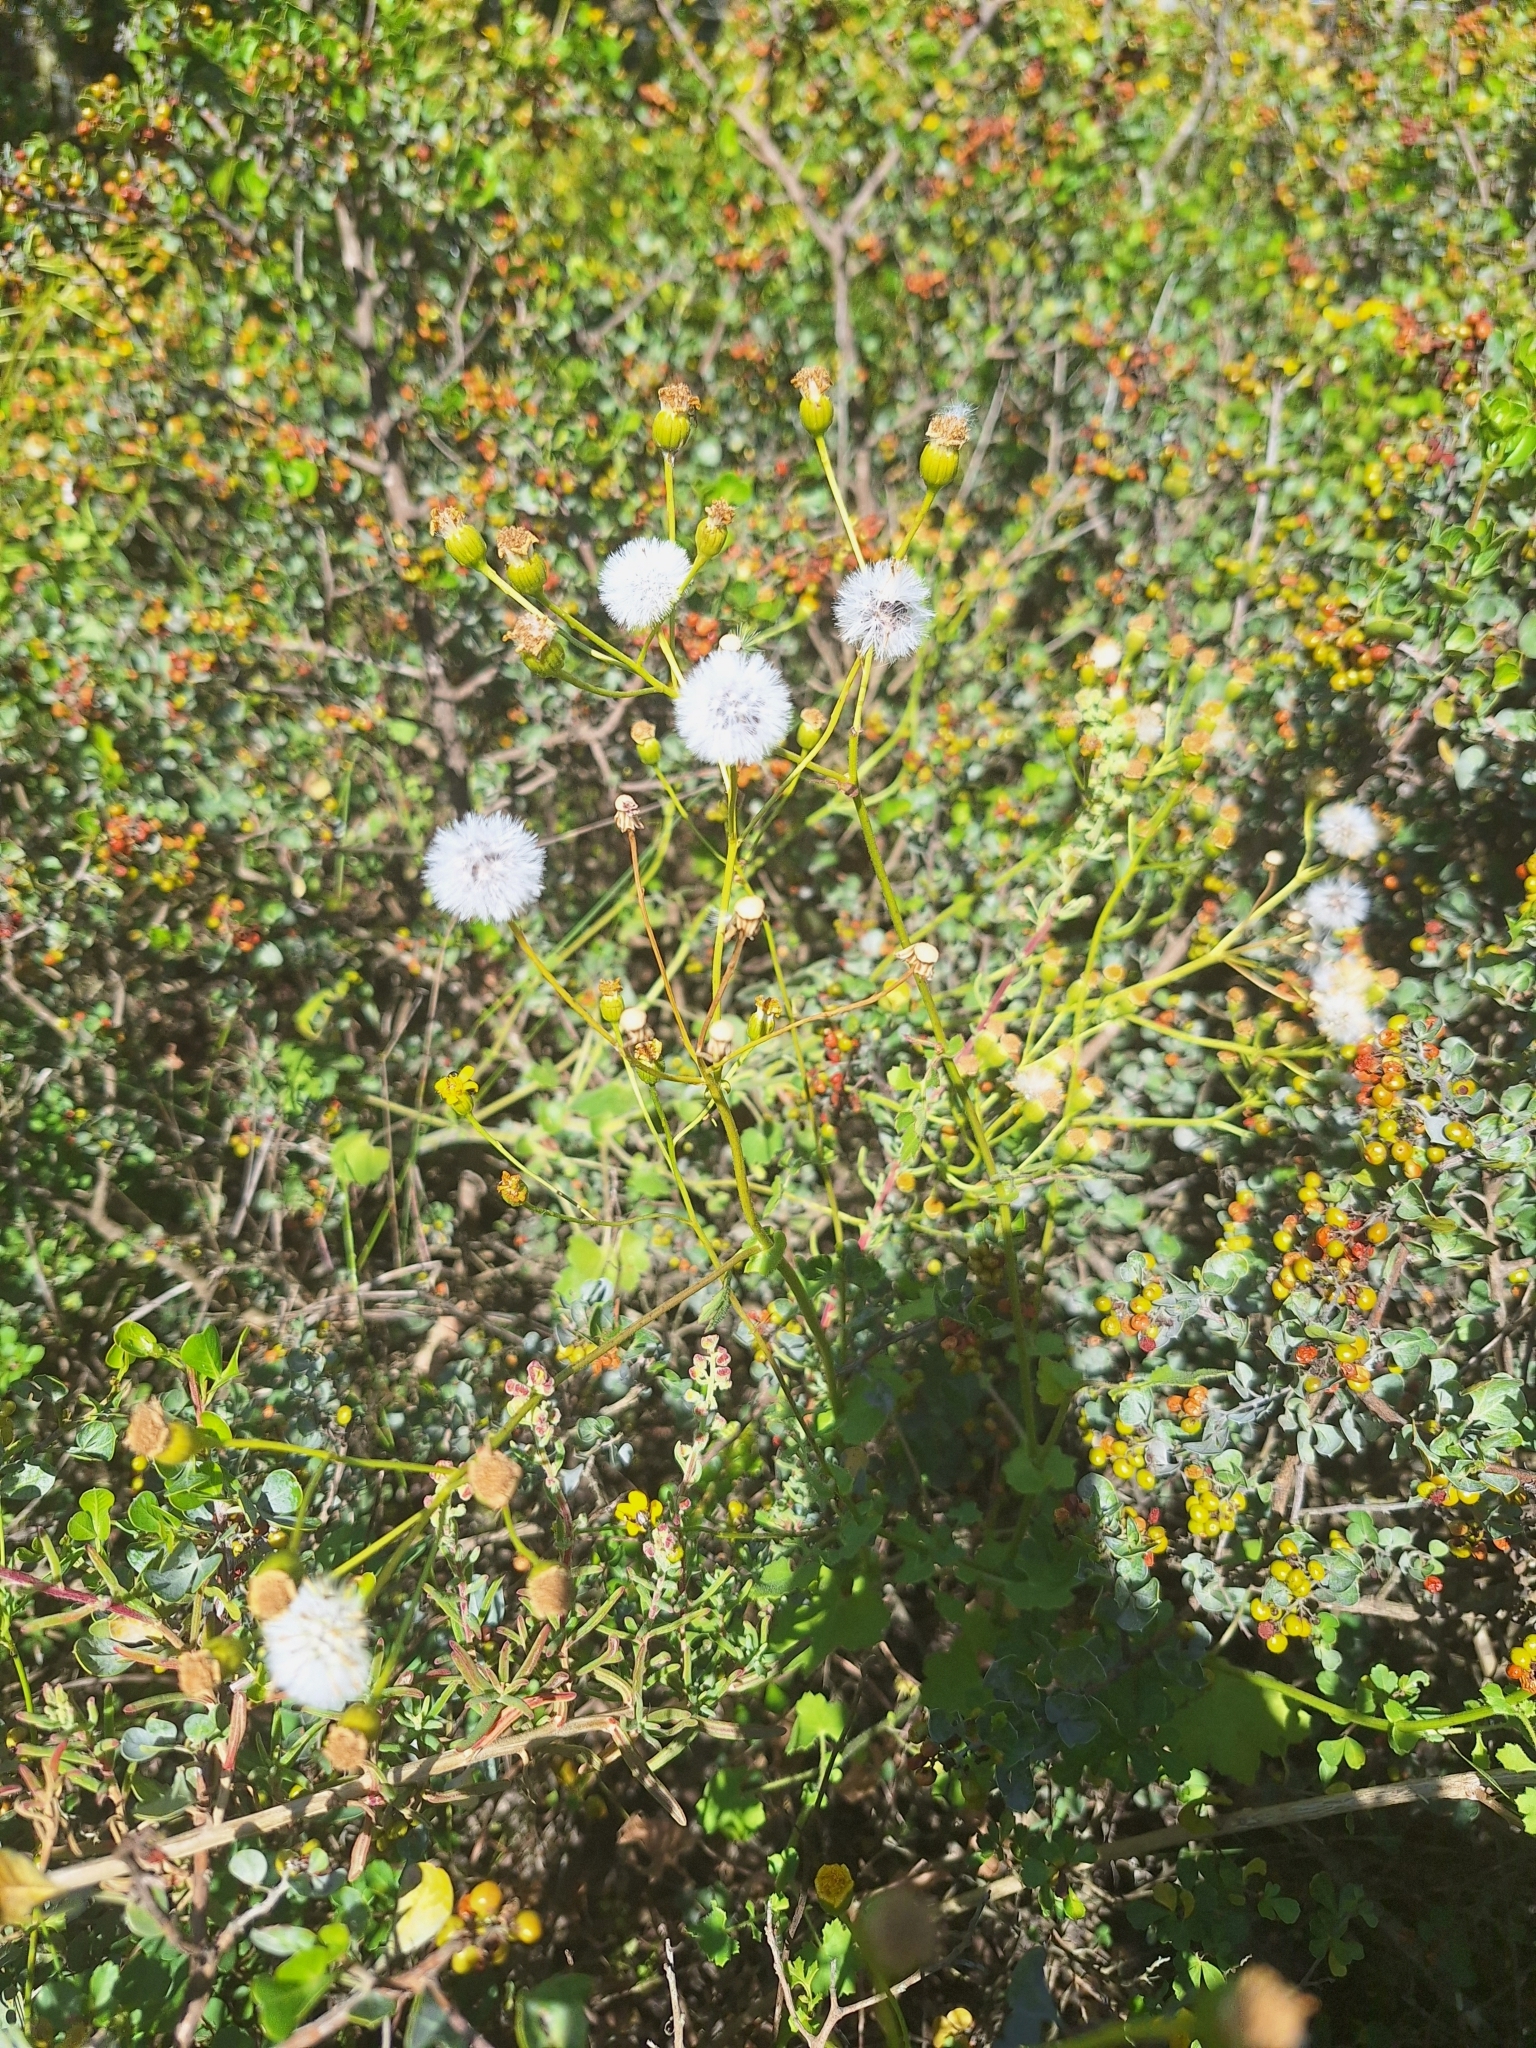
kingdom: Plantae
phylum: Tracheophyta
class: Magnoliopsida
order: Asterales
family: Asteraceae
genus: Cineraria
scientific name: Cineraria geifolia
